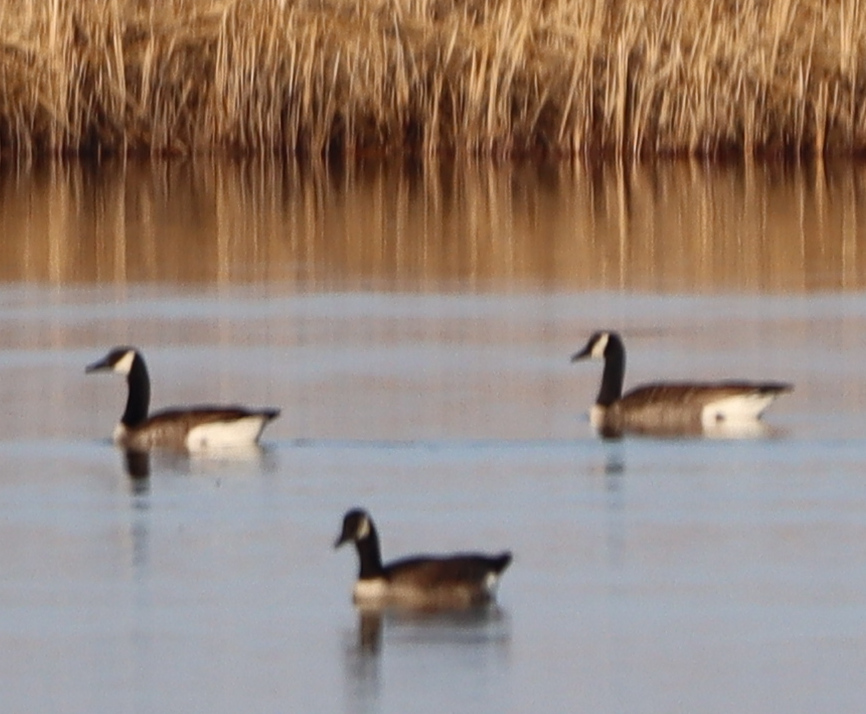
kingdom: Animalia
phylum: Chordata
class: Aves
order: Anseriformes
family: Anatidae
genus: Branta
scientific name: Branta canadensis
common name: Canada goose
